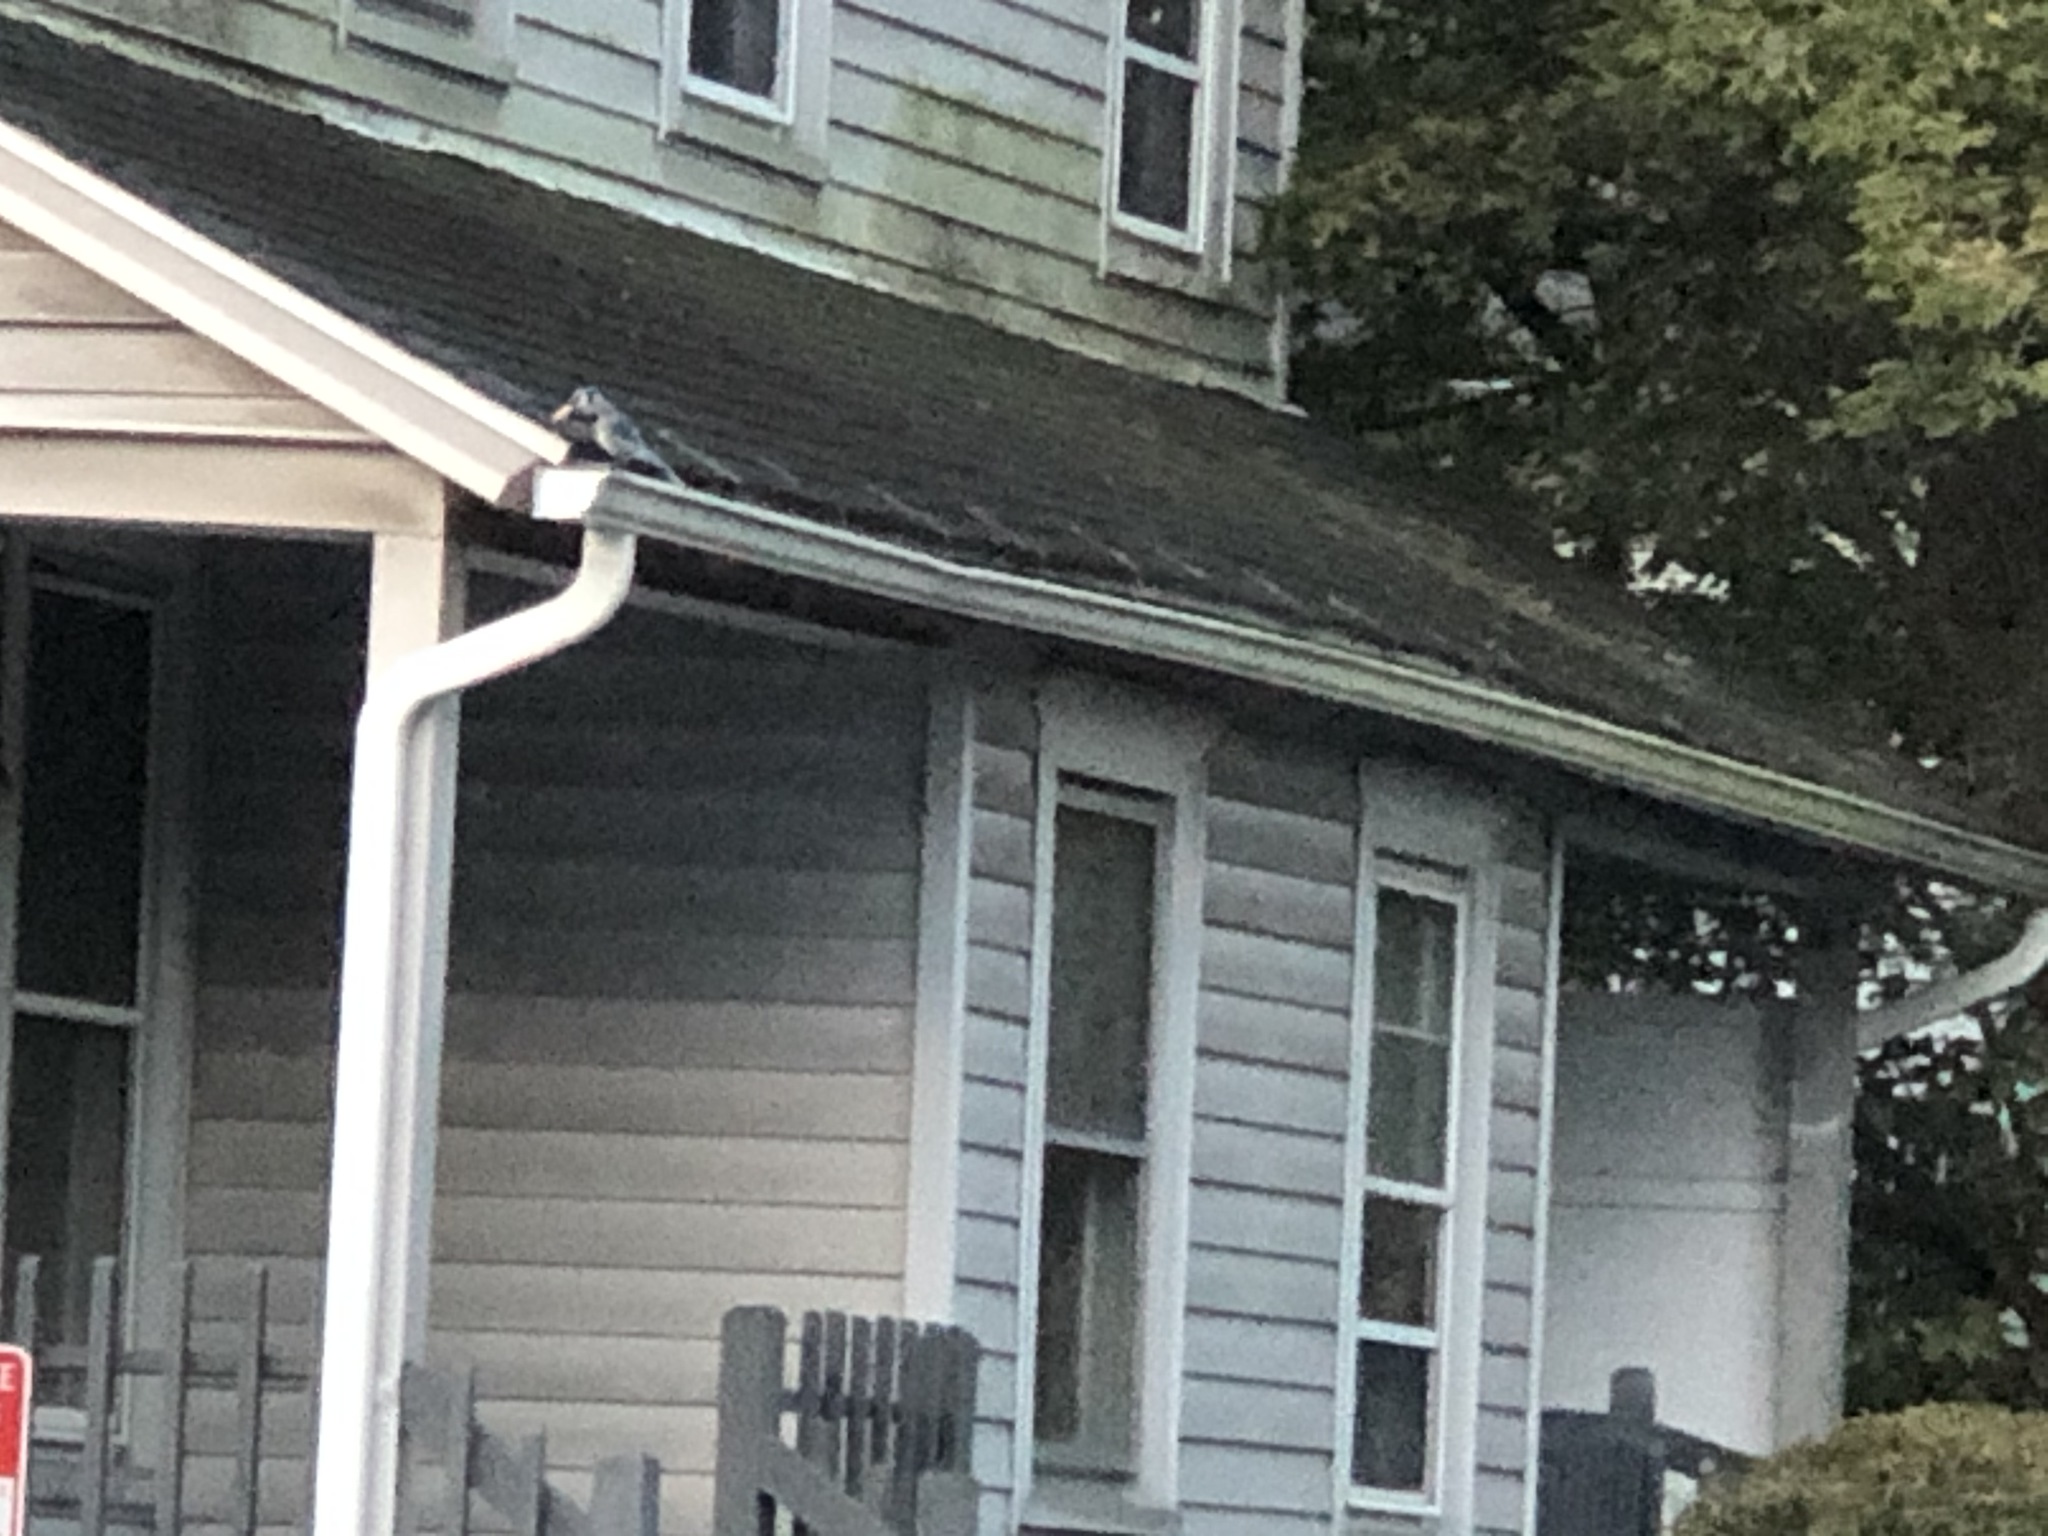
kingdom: Animalia
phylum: Chordata
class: Aves
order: Passeriformes
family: Corvidae
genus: Cyanocitta
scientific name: Cyanocitta cristata
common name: Blue jay
